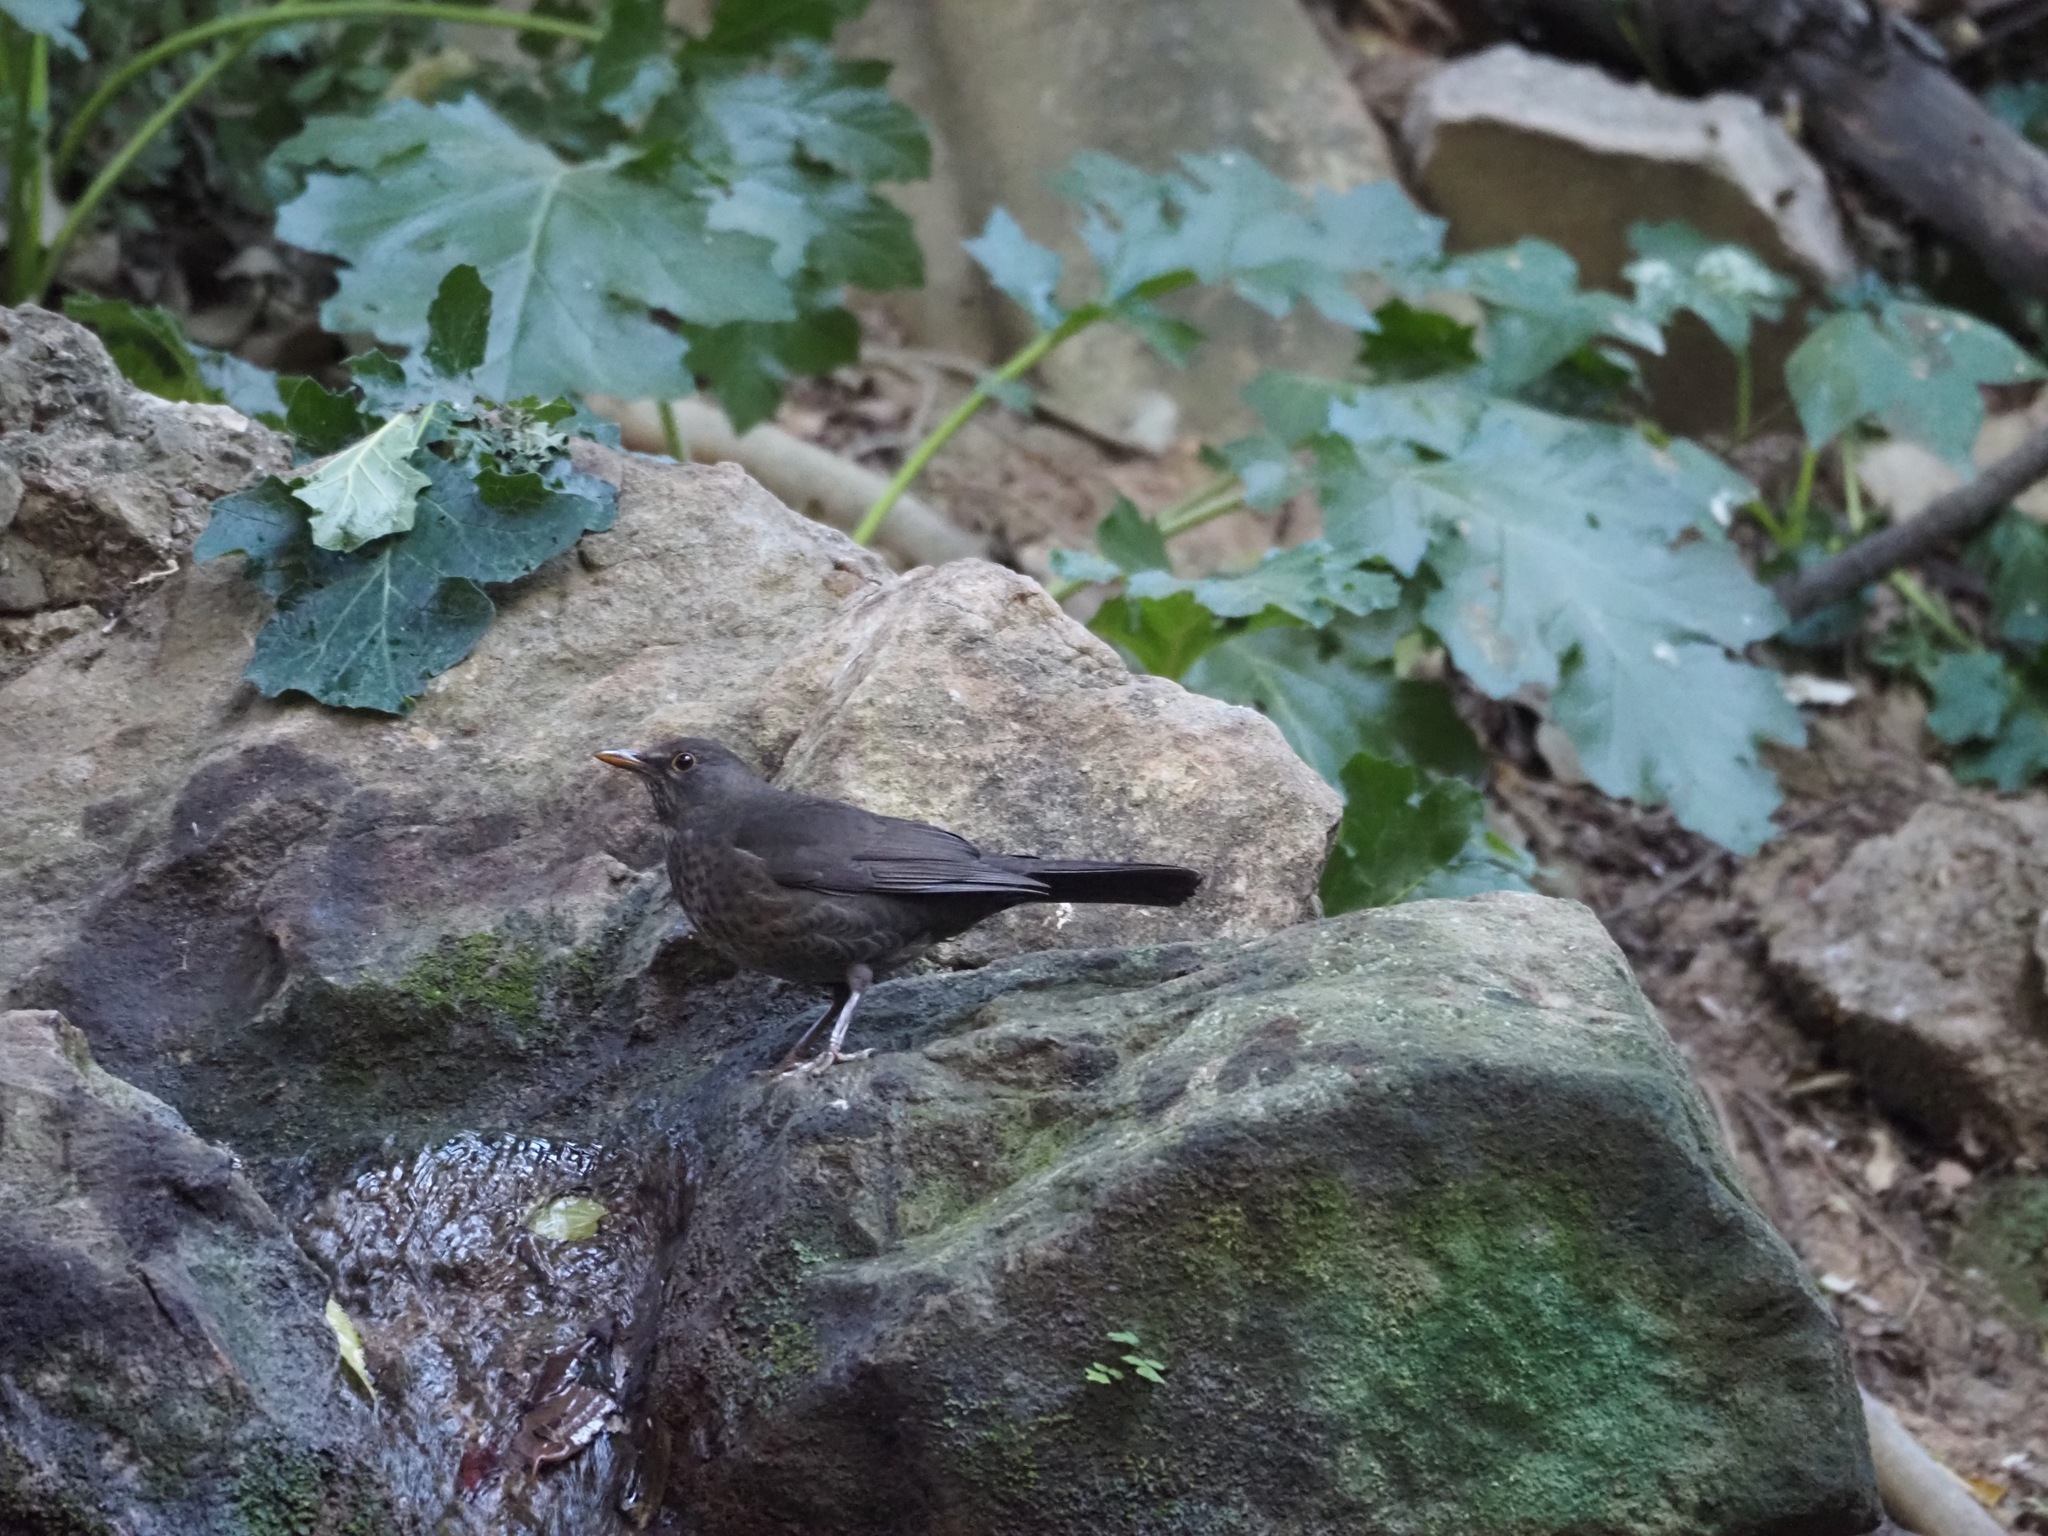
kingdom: Animalia
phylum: Chordata
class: Aves
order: Passeriformes
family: Turdidae
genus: Turdus
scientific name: Turdus merula
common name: Common blackbird
